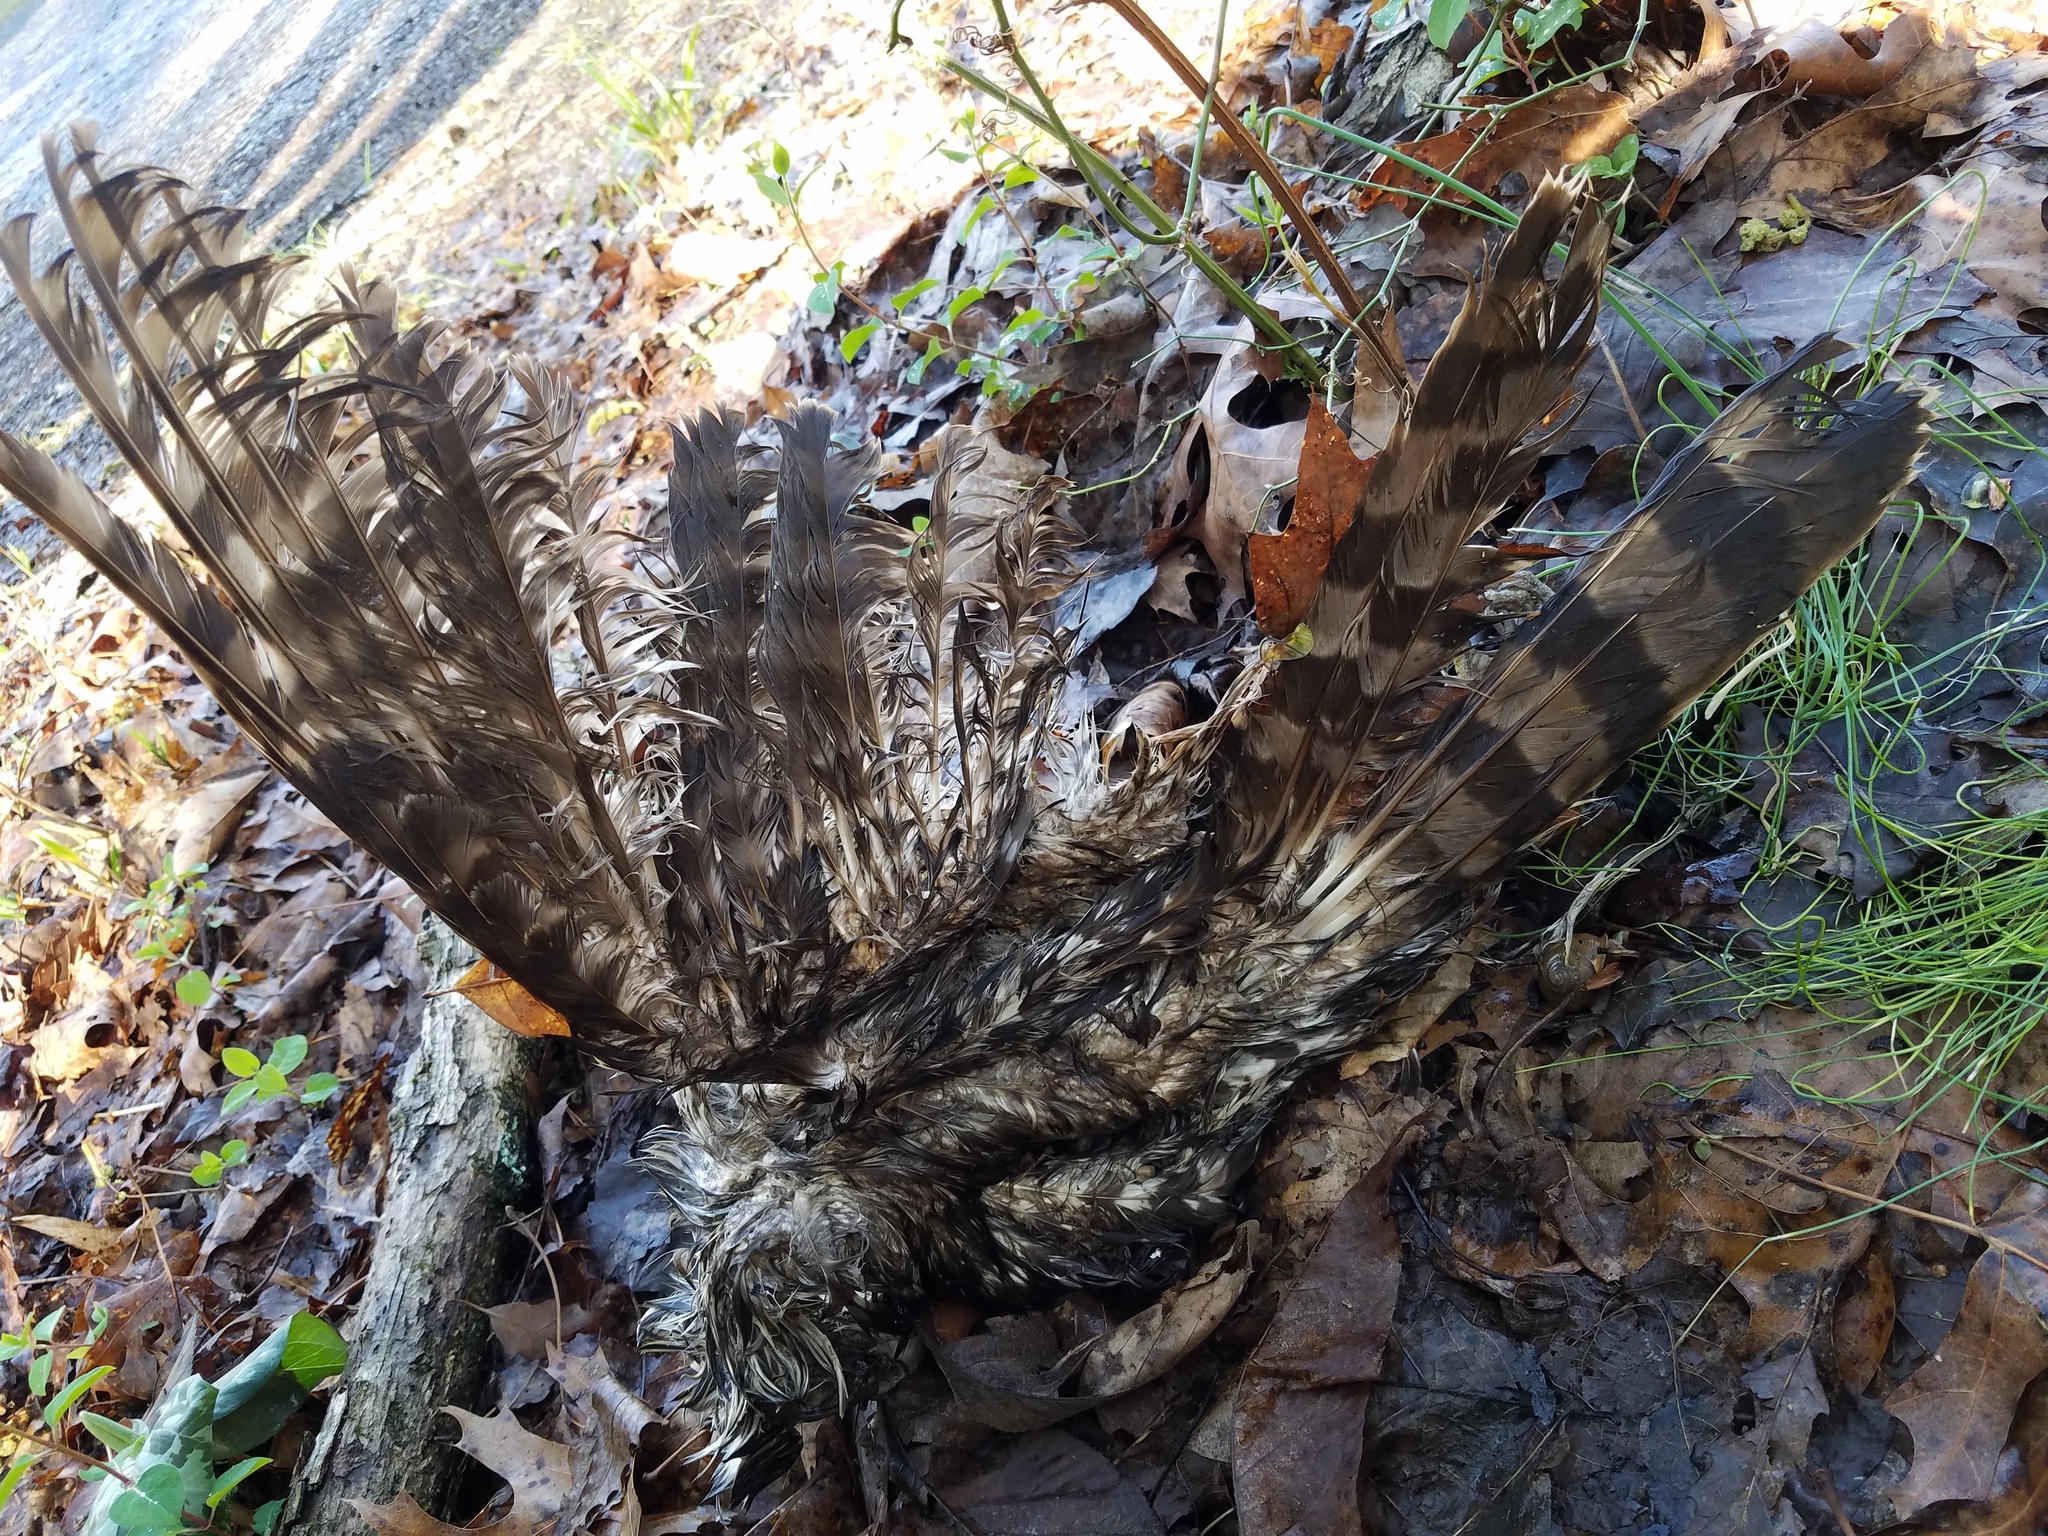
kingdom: Animalia
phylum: Chordata
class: Aves
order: Accipitriformes
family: Accipitridae
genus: Accipiter
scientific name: Accipiter cooperii
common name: Cooper's hawk
